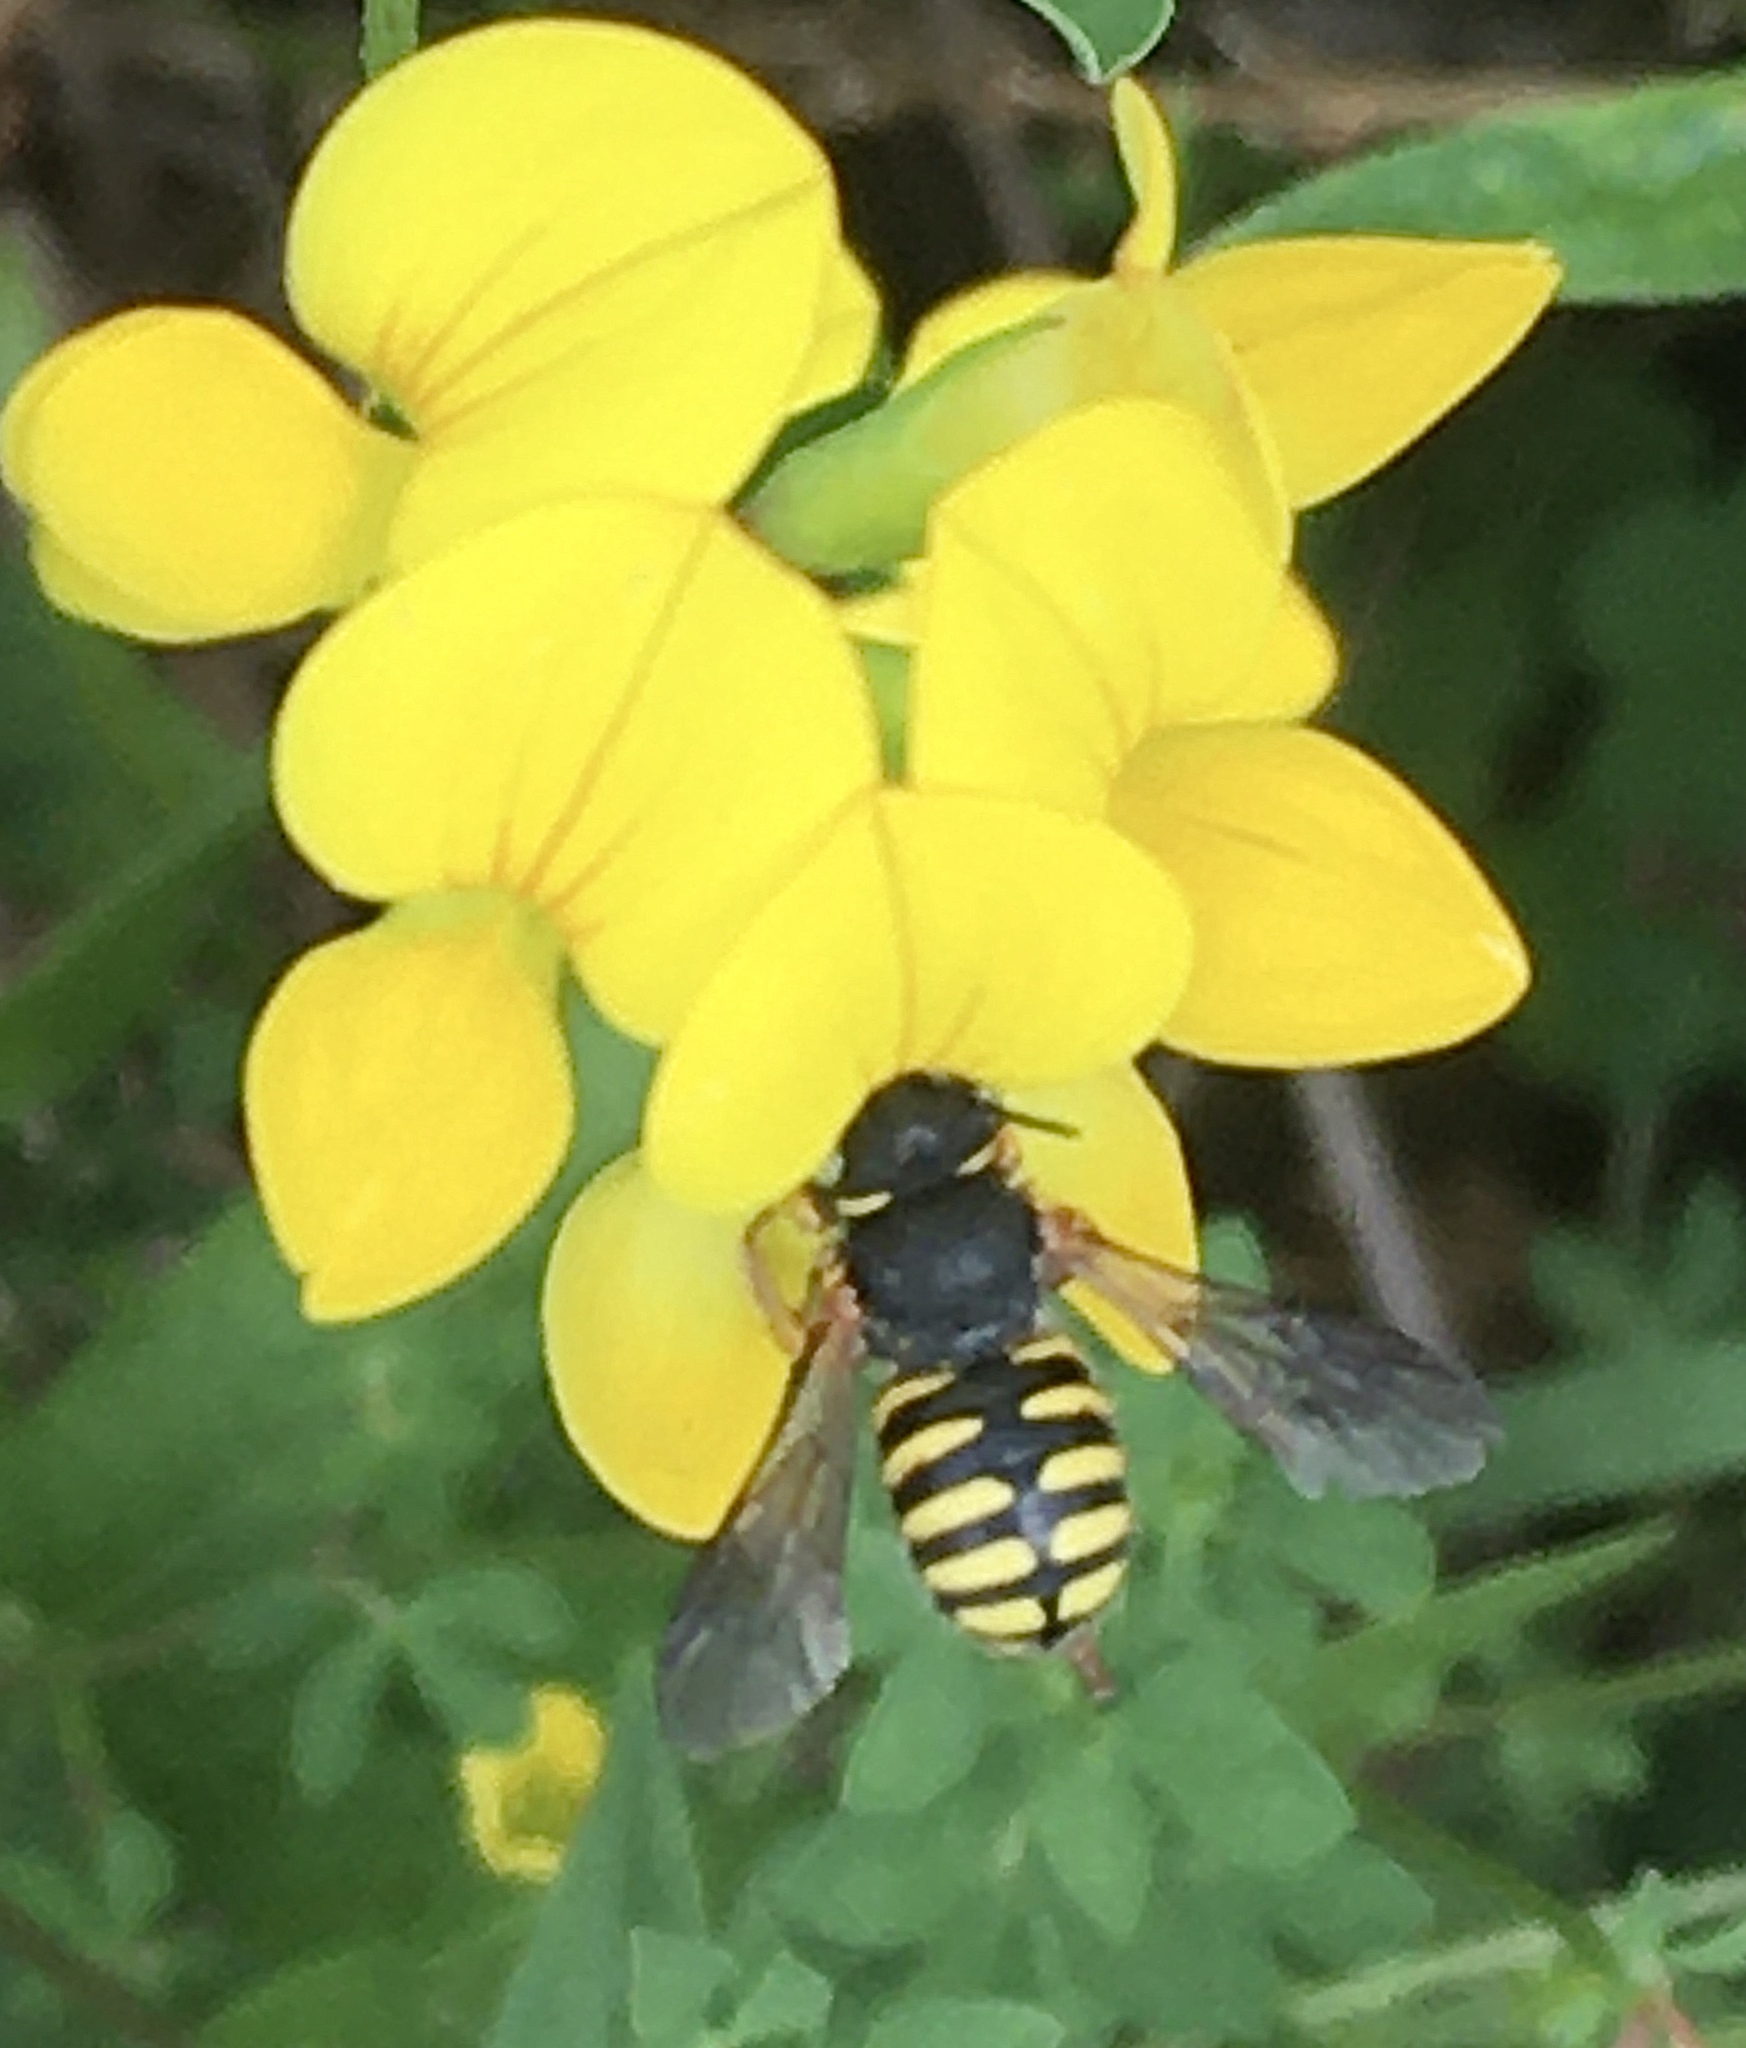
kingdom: Animalia
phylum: Arthropoda
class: Insecta
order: Hymenoptera
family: Megachilidae
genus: Anthidium
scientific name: Anthidium oblongatum
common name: Oblong wool carder bee
